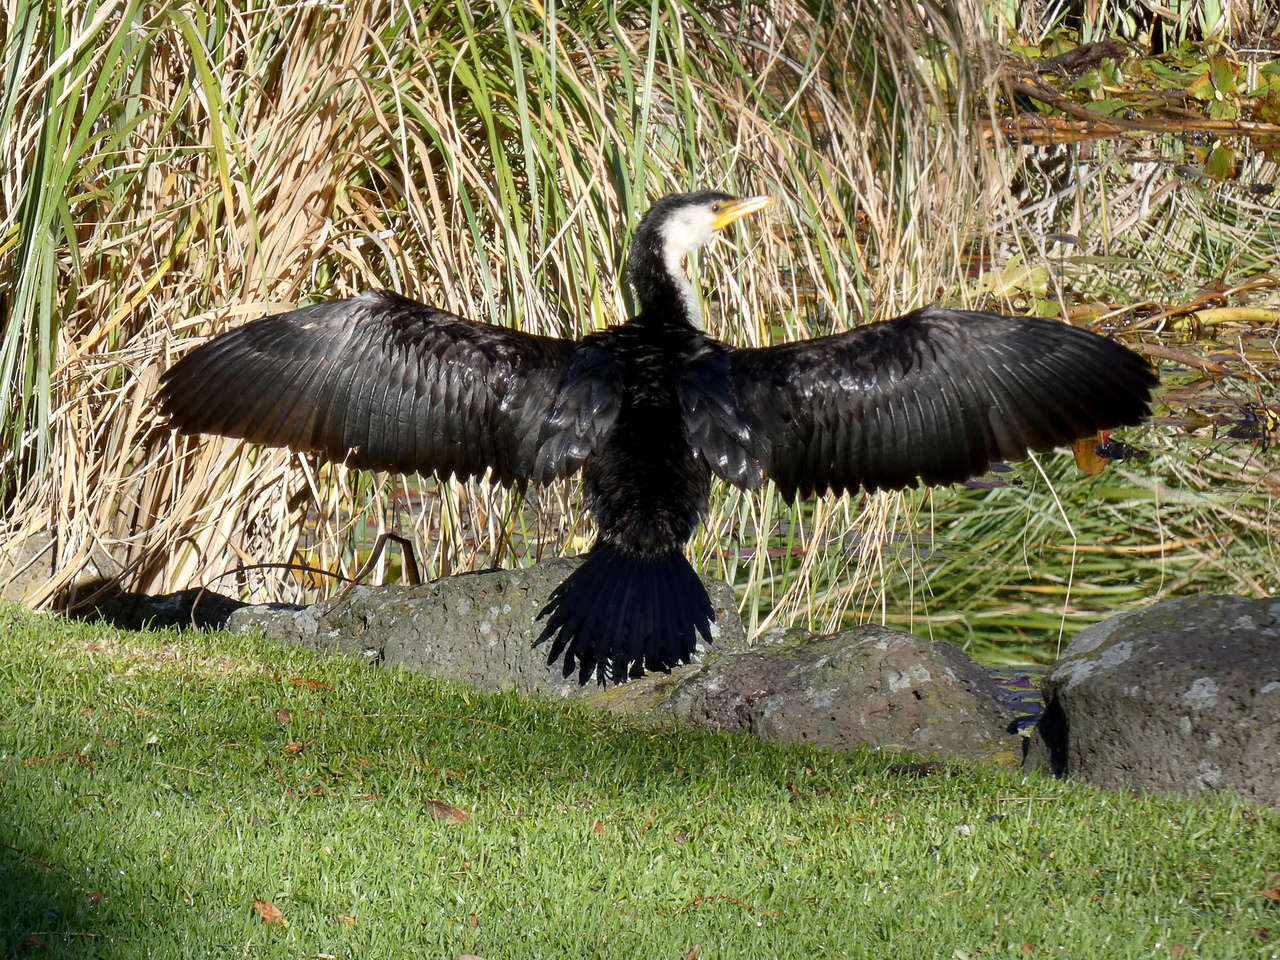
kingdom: Animalia
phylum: Chordata
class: Aves
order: Suliformes
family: Phalacrocoracidae
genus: Microcarbo
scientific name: Microcarbo melanoleucos
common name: Little pied cormorant
